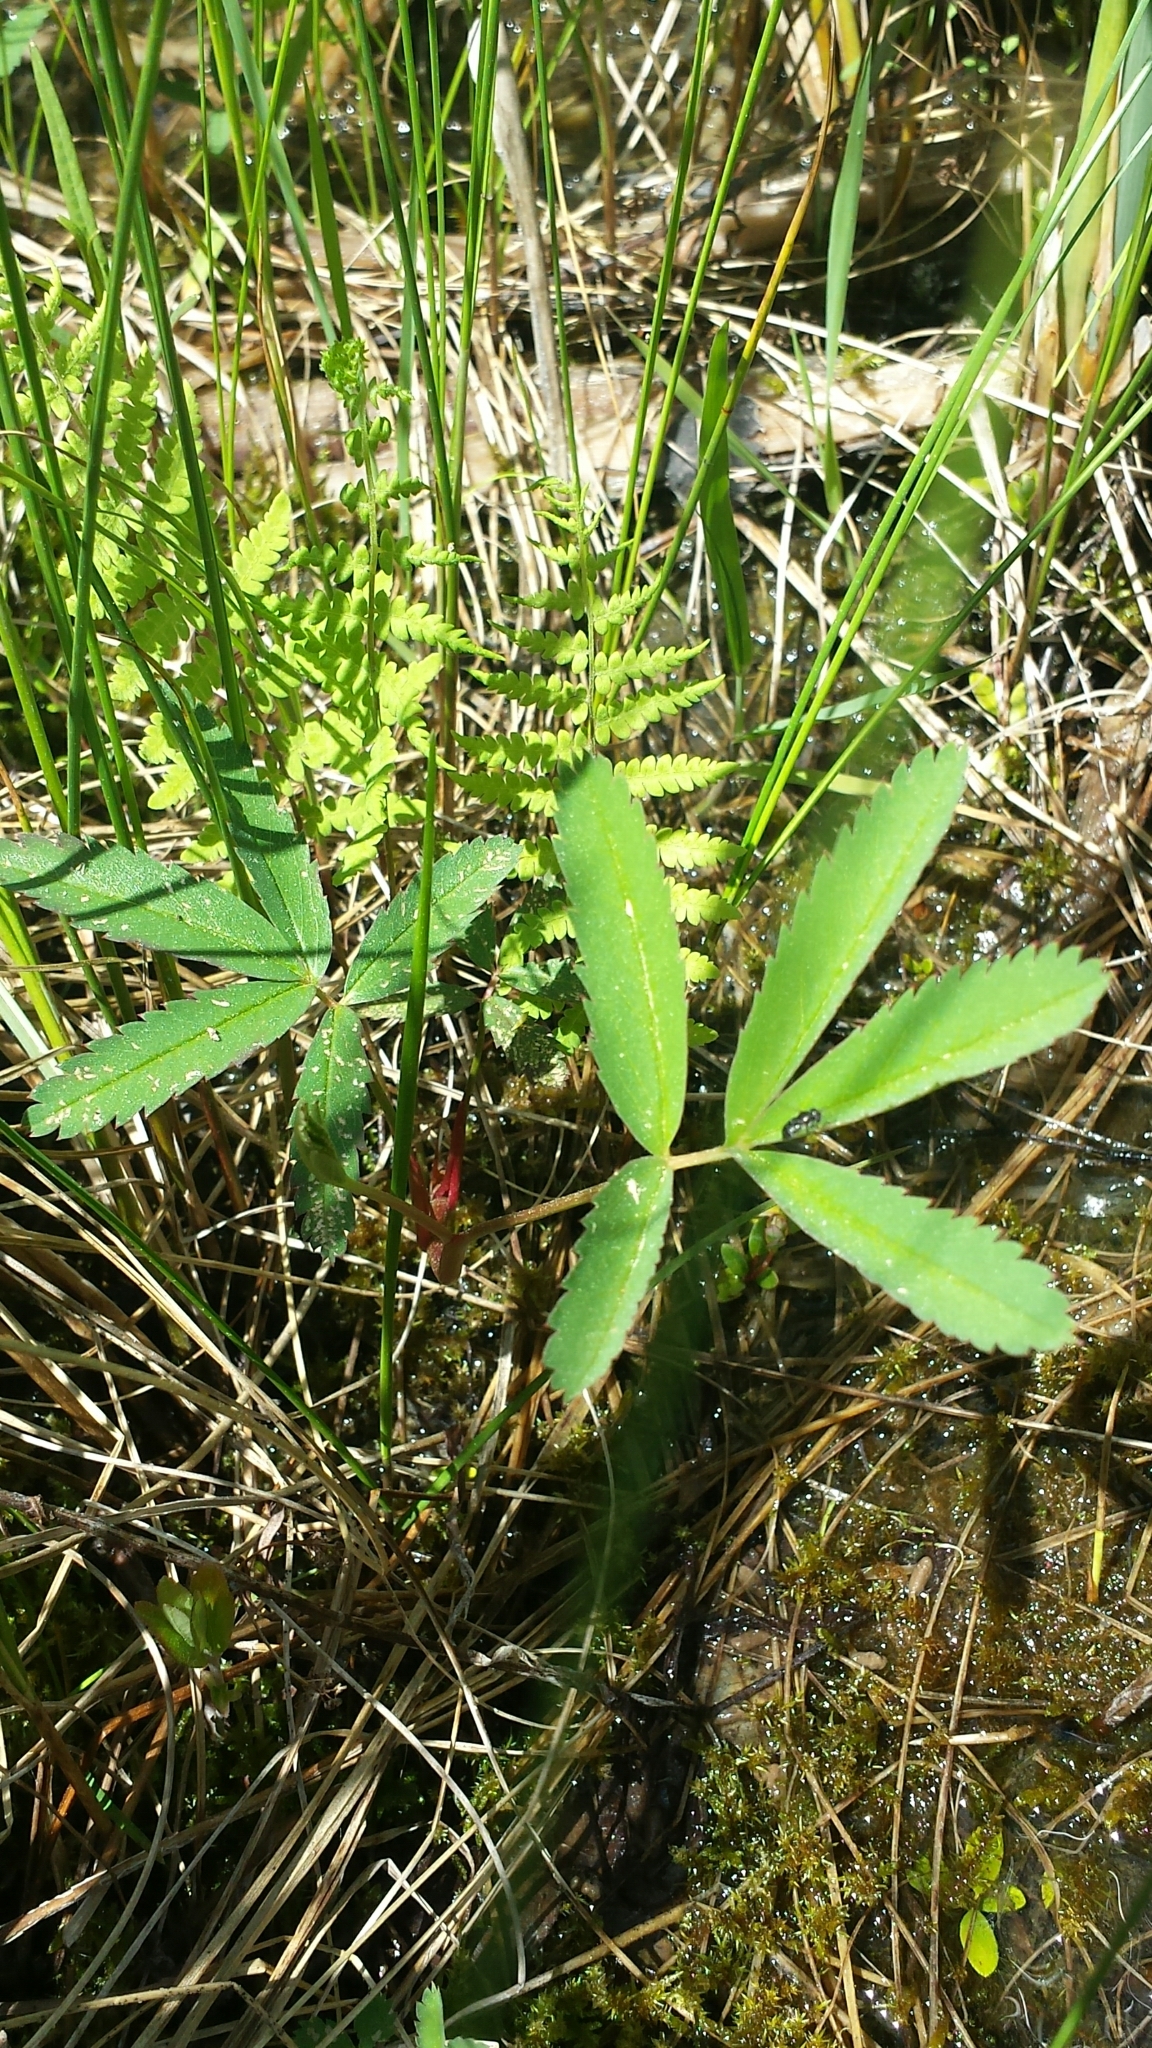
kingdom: Plantae
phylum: Tracheophyta
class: Magnoliopsida
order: Rosales
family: Rosaceae
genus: Comarum
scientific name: Comarum palustre
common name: Marsh cinquefoil
